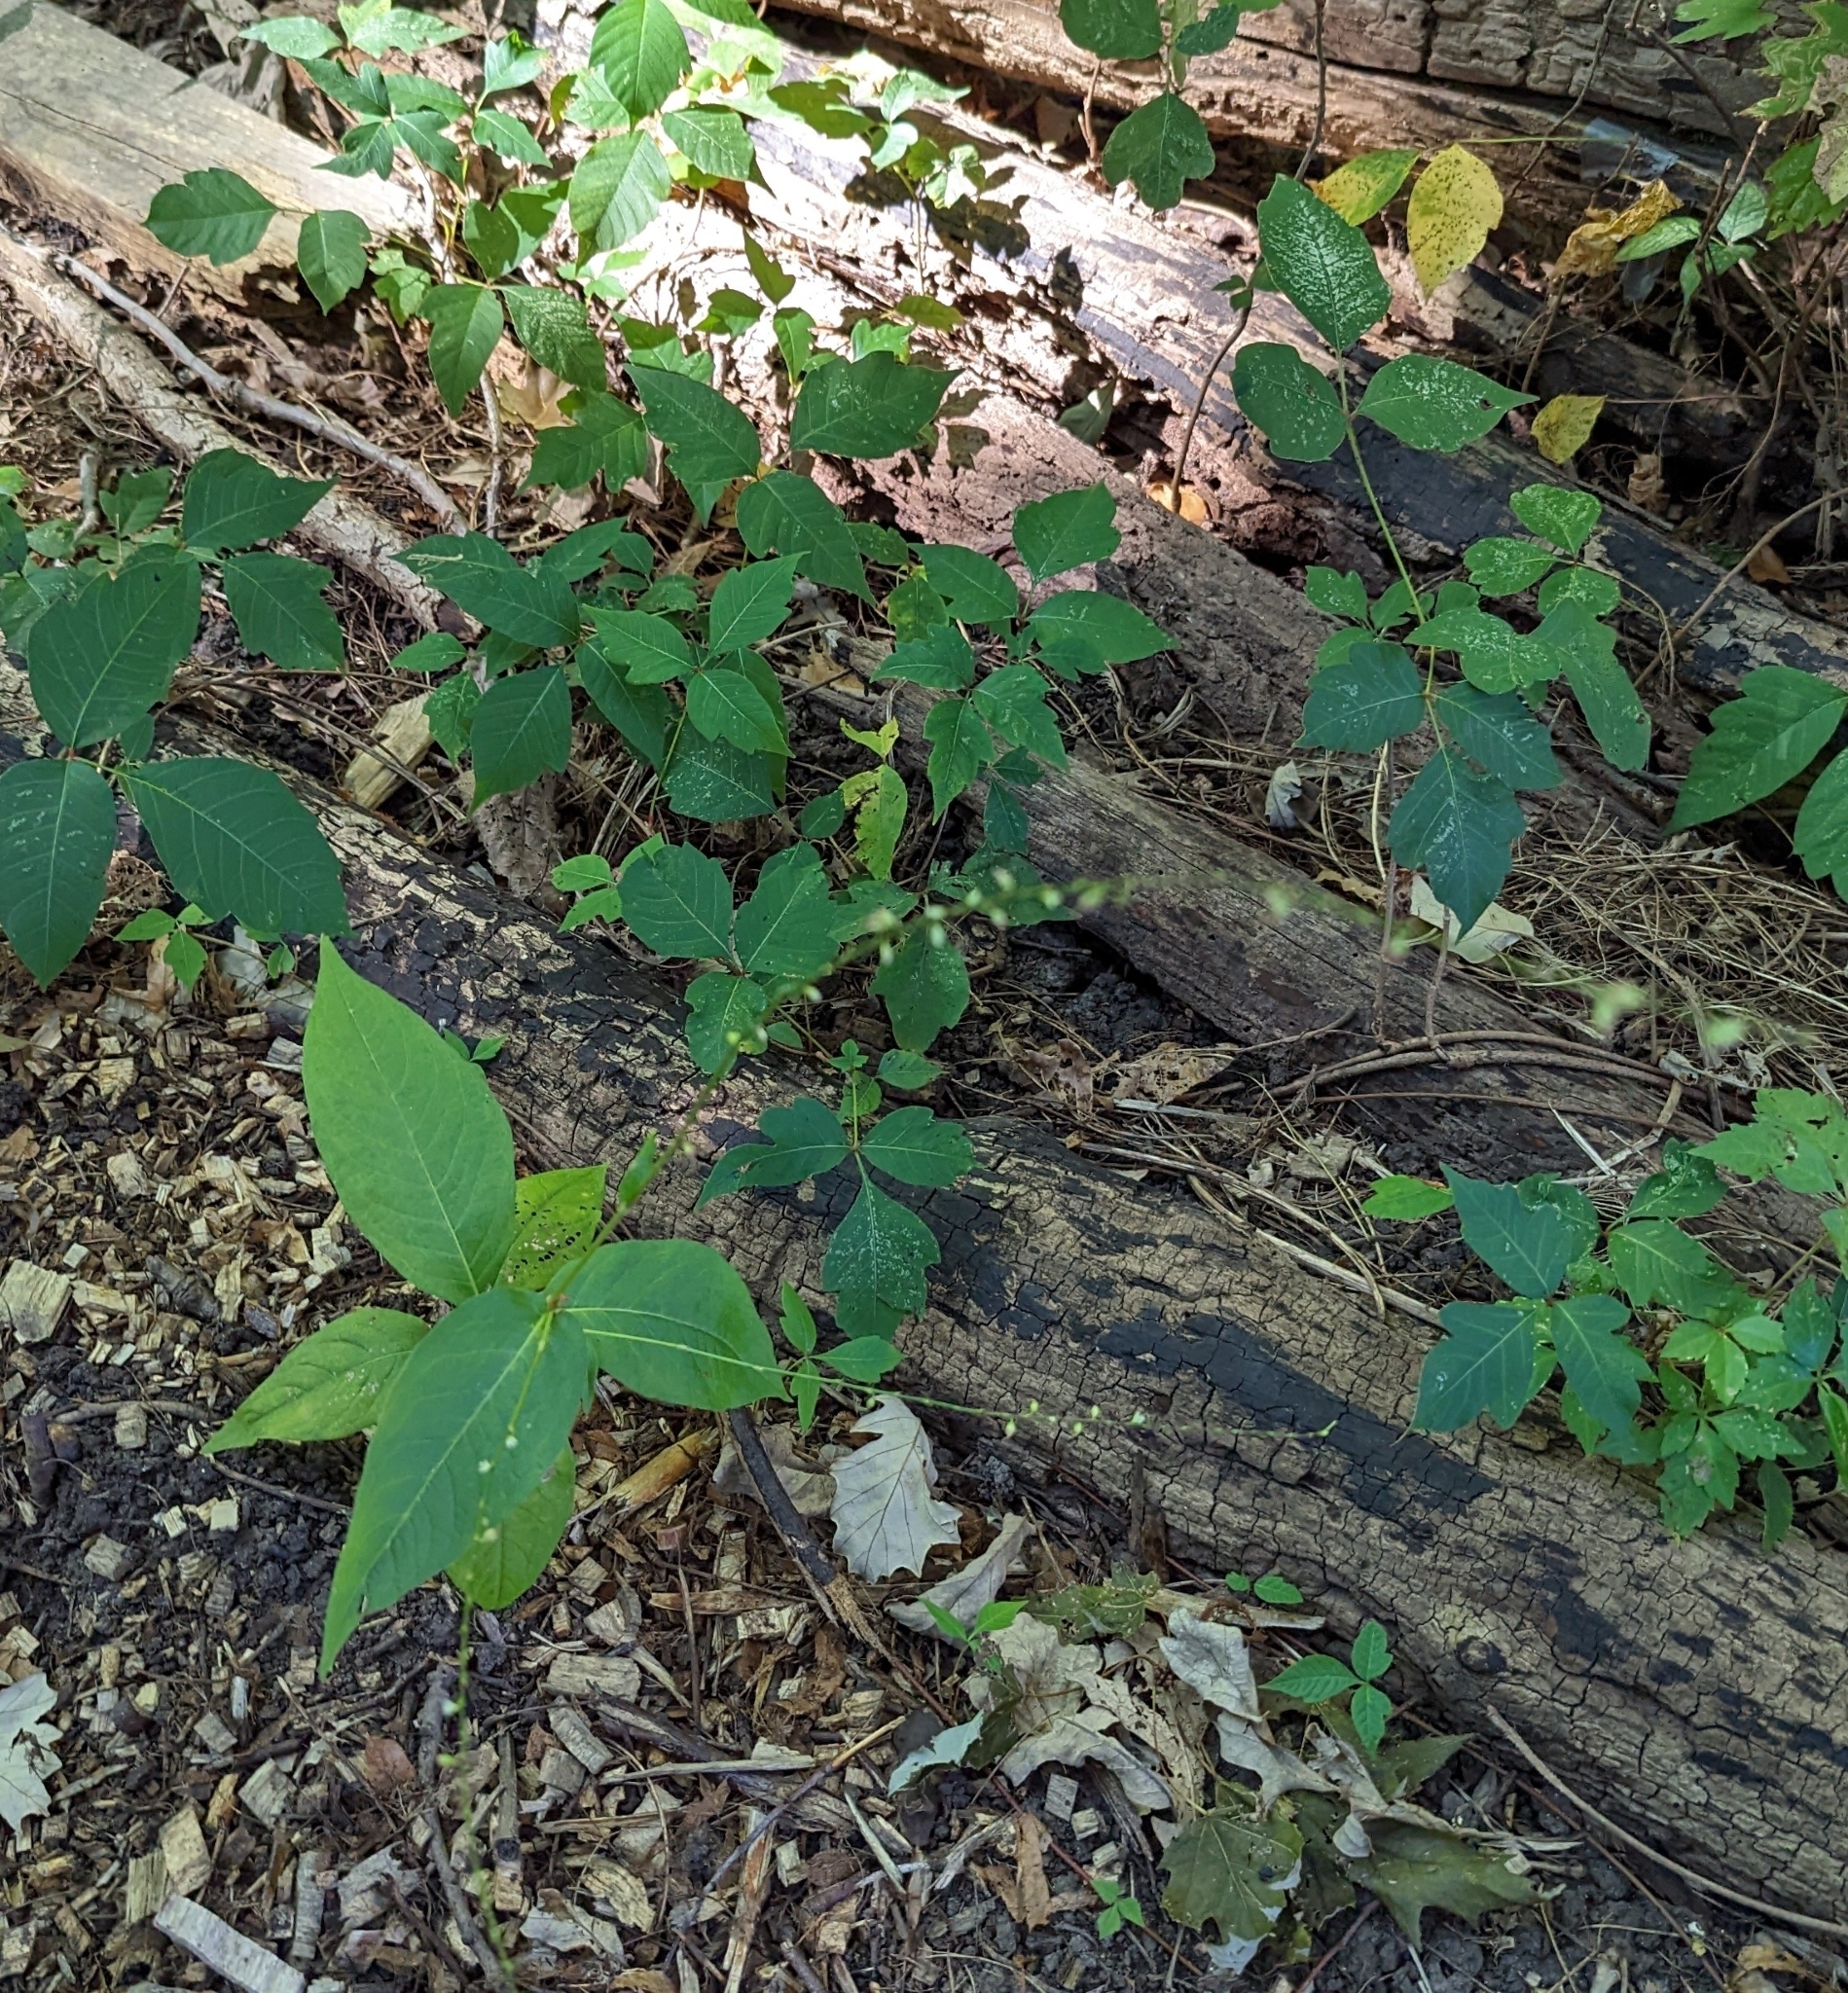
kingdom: Plantae
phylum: Tracheophyta
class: Magnoliopsida
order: Caryophyllales
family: Polygonaceae
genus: Persicaria
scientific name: Persicaria virginiana
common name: Jumpseed
